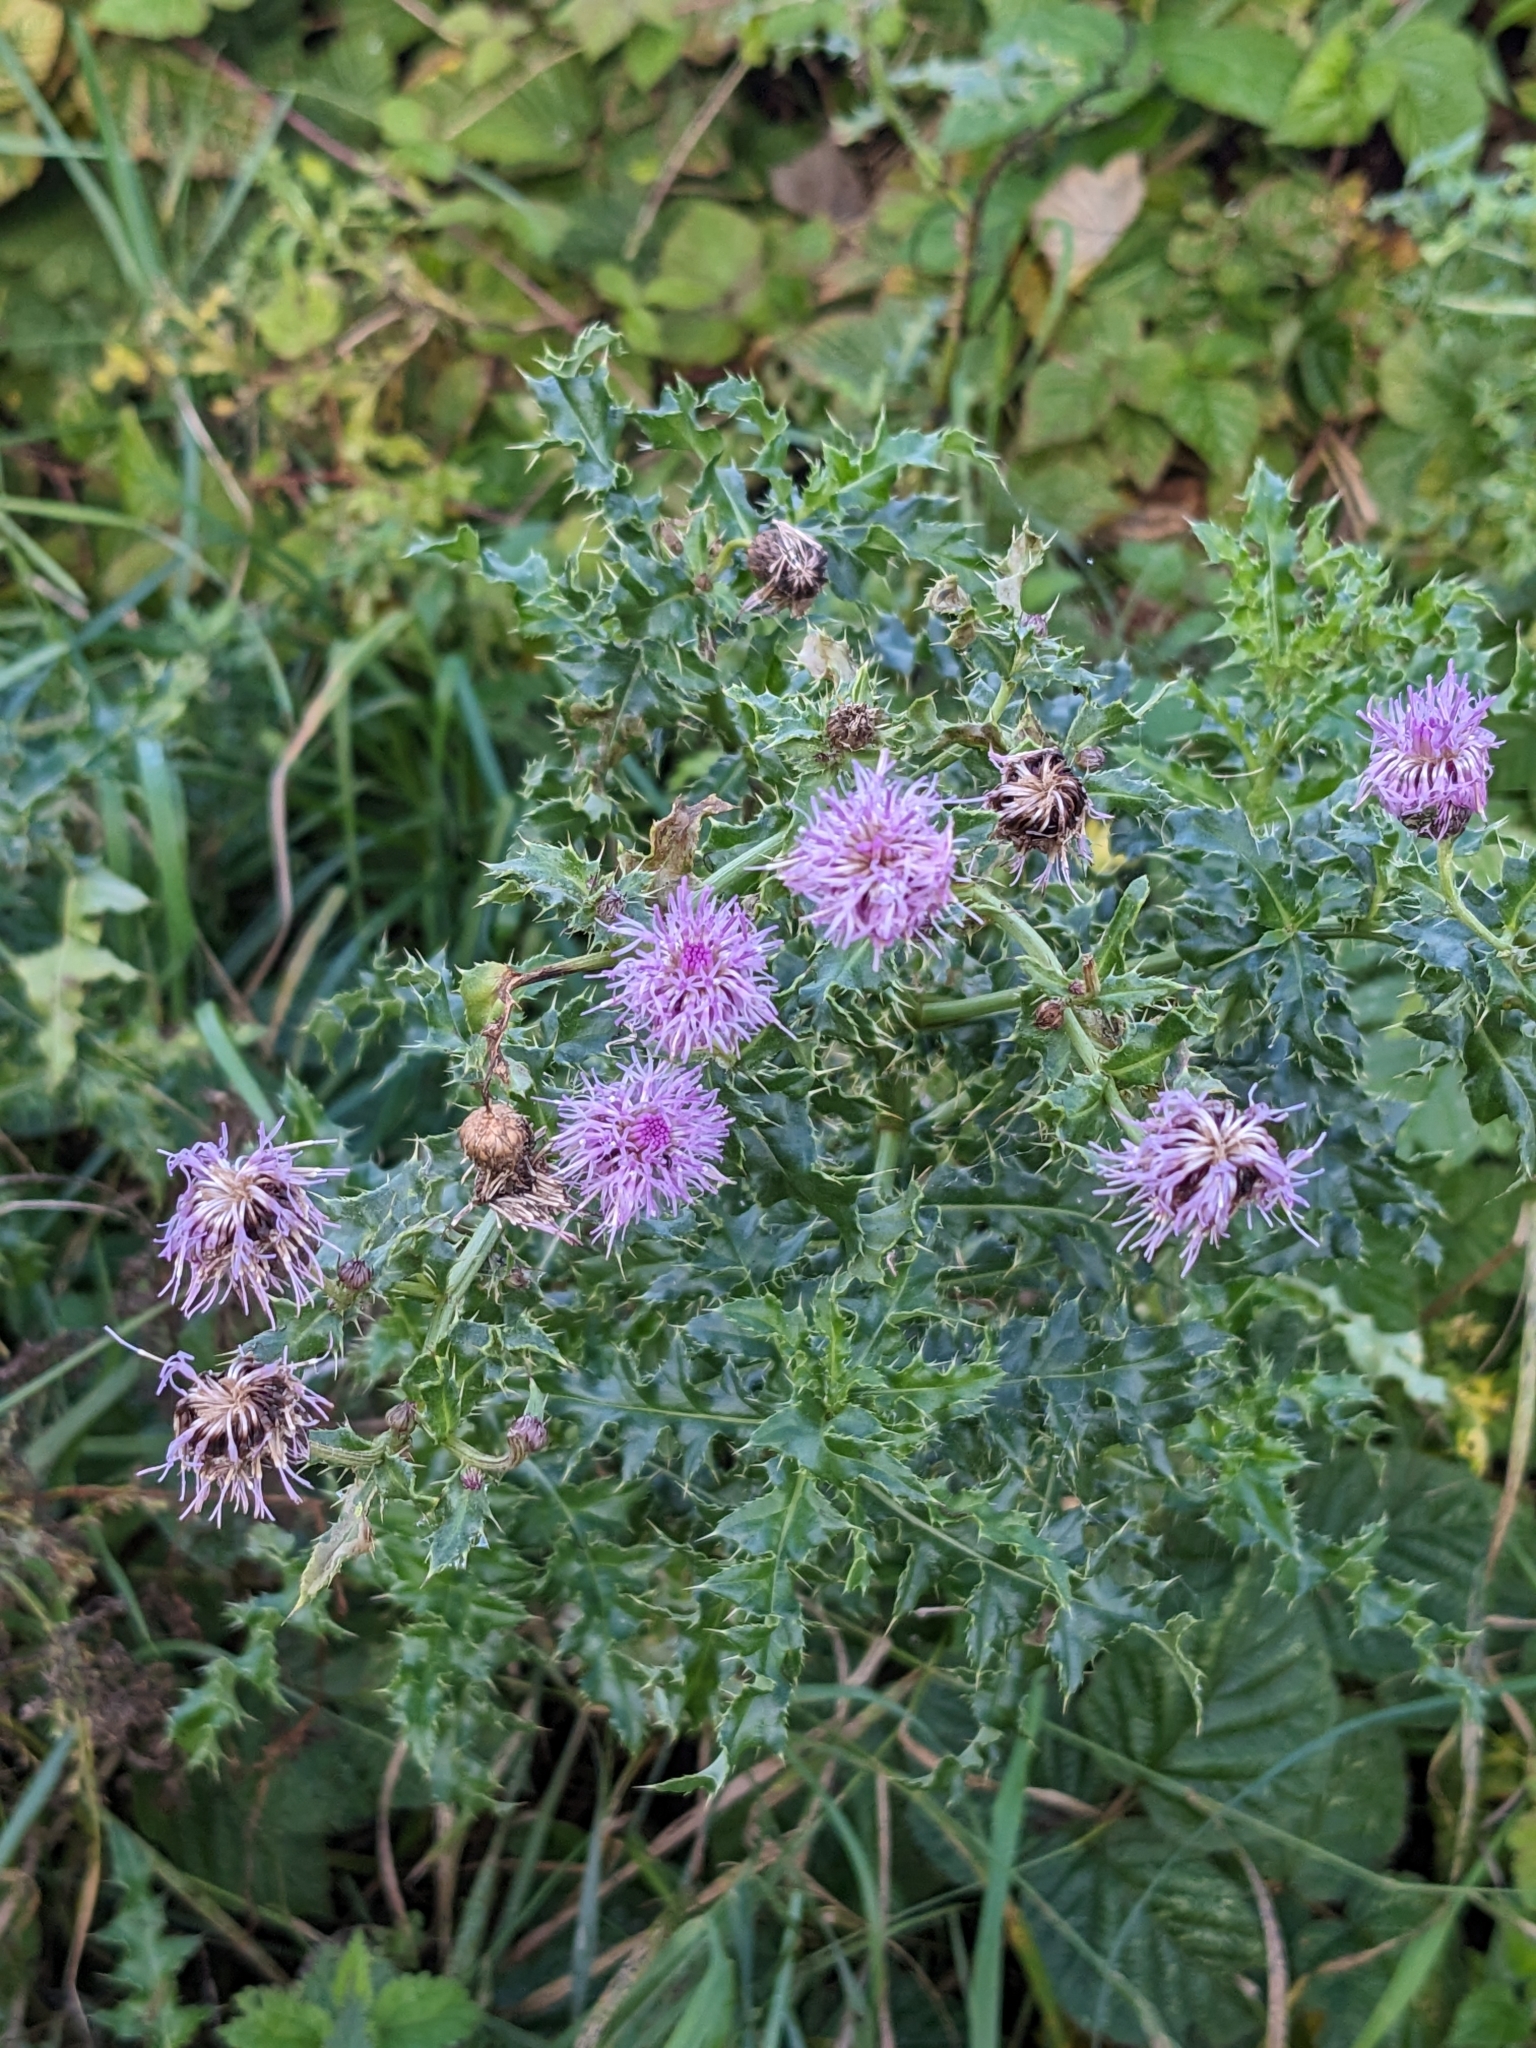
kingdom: Plantae
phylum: Tracheophyta
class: Magnoliopsida
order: Asterales
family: Asteraceae
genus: Cirsium
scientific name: Cirsium arvense
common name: Creeping thistle
